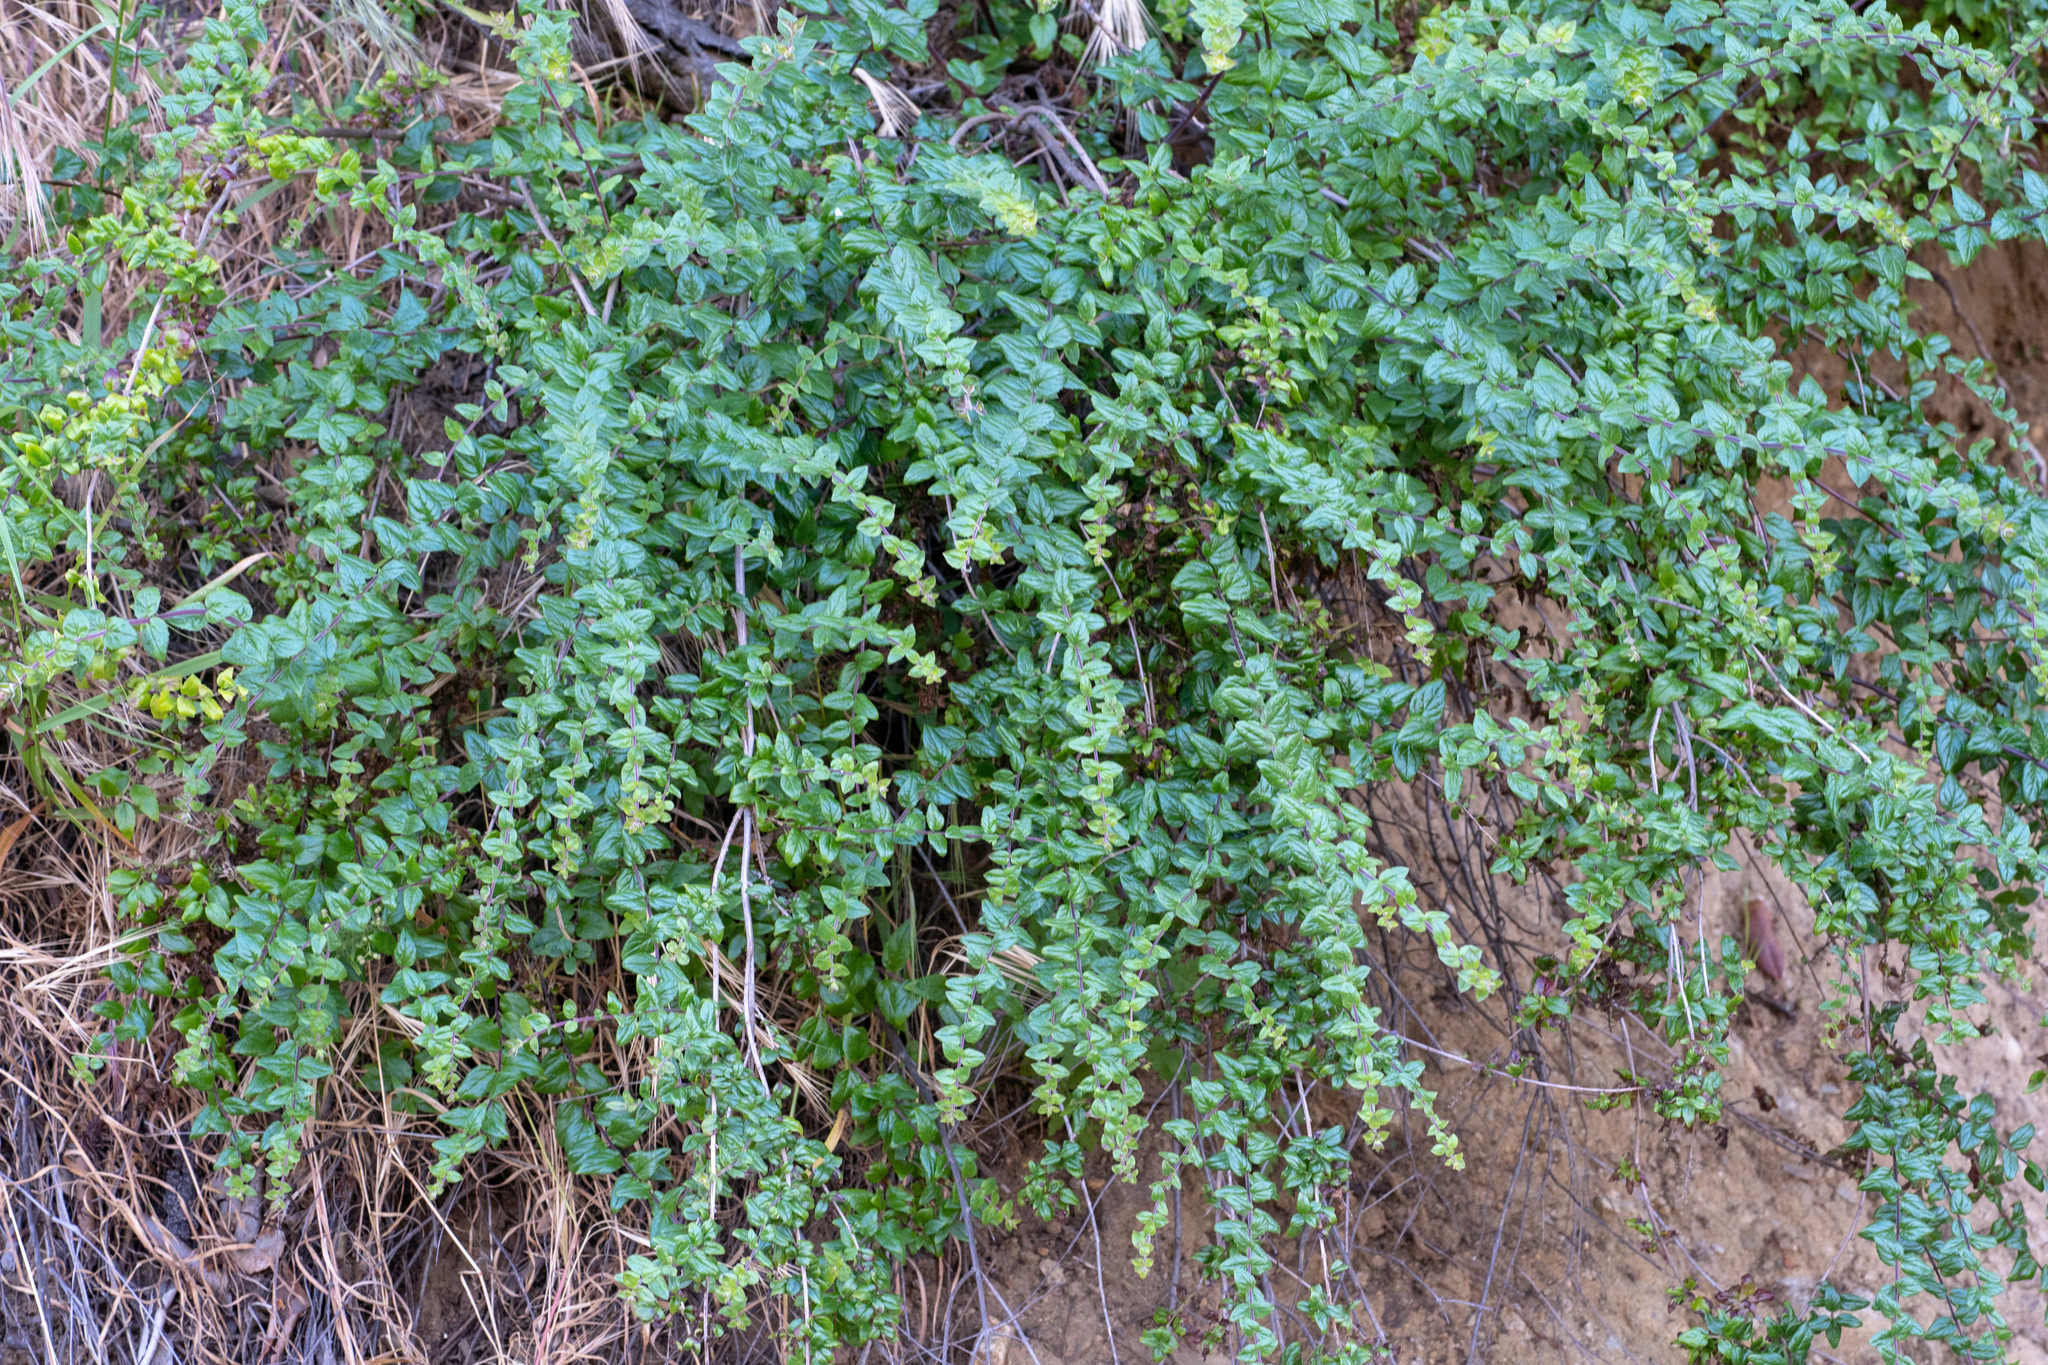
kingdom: Plantae
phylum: Tracheophyta
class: Magnoliopsida
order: Lamiales
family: Plantaginaceae
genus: Keckiella
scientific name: Keckiella cordifolia
